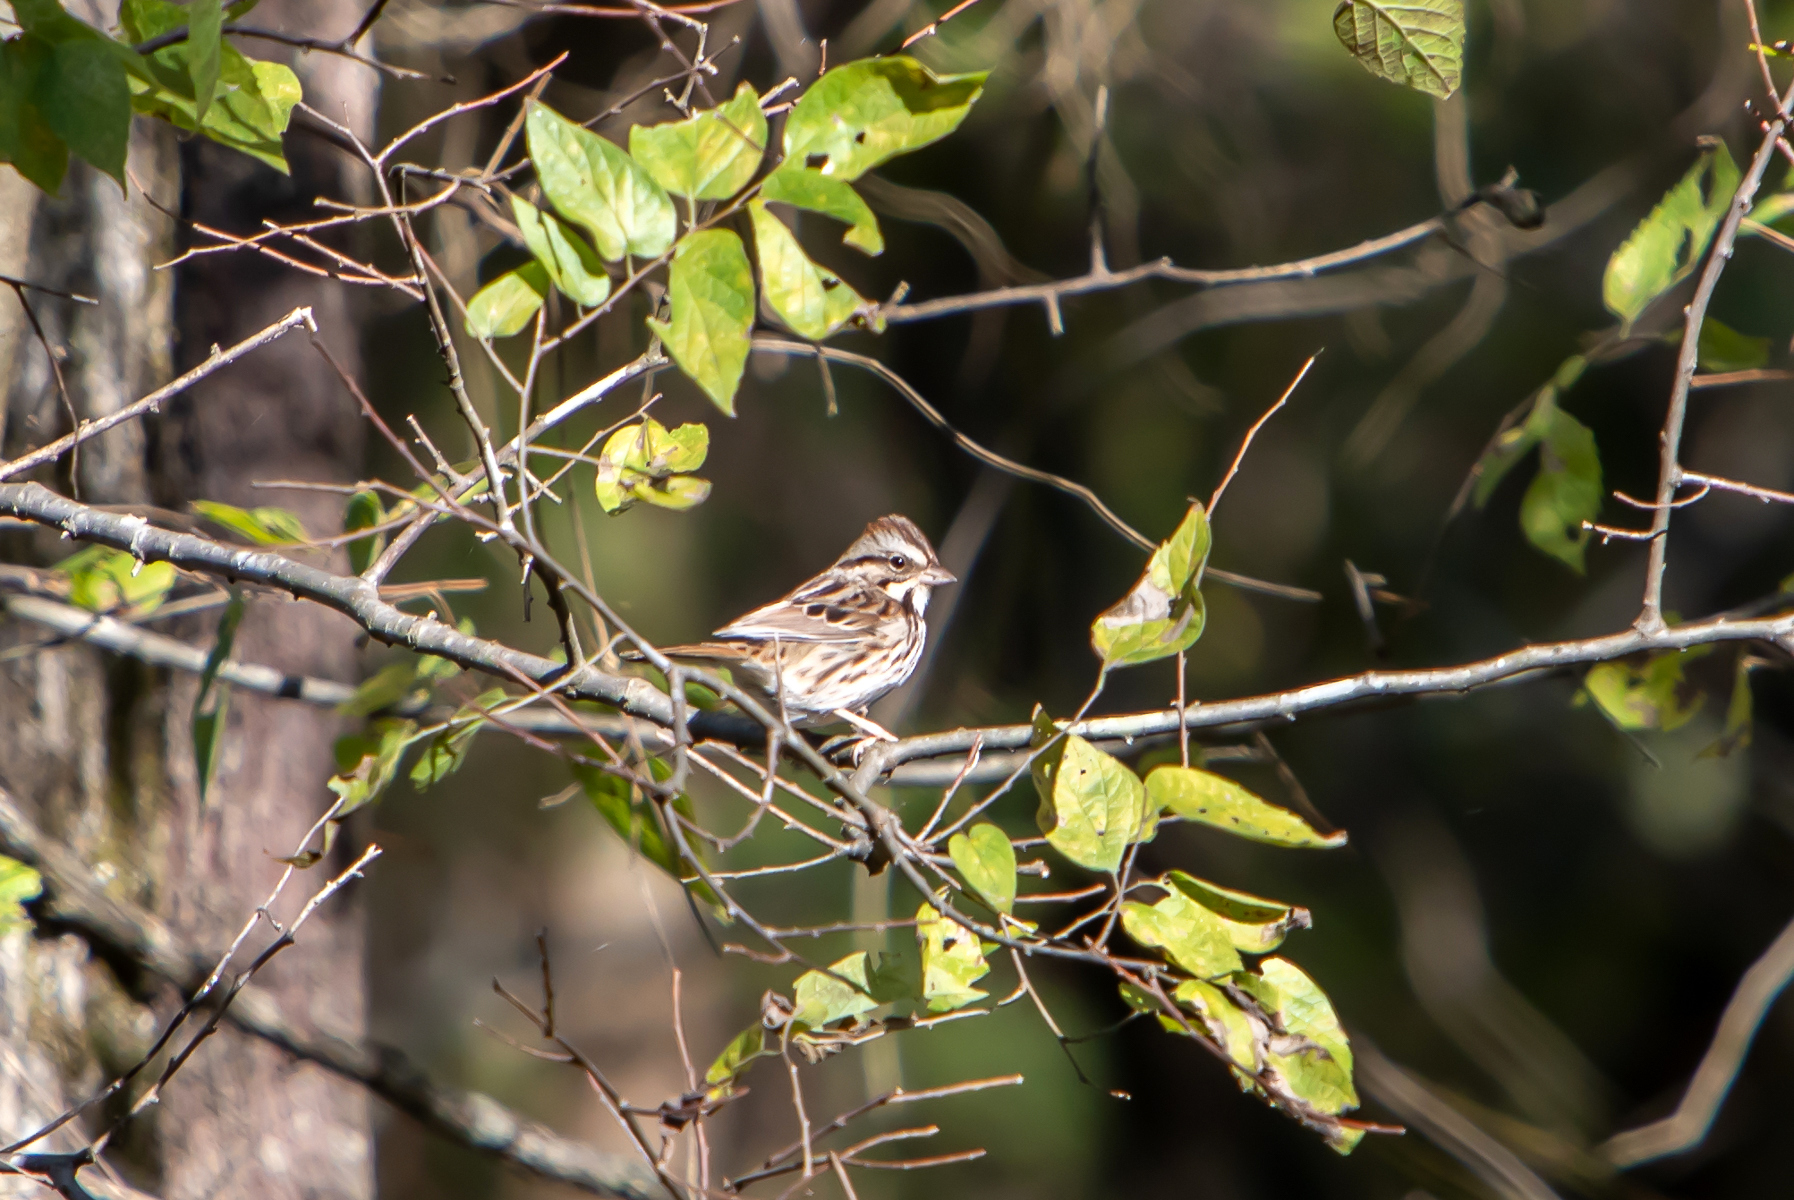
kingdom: Animalia
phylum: Chordata
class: Aves
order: Passeriformes
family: Passerellidae
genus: Melospiza
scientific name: Melospiza melodia
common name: Song sparrow
